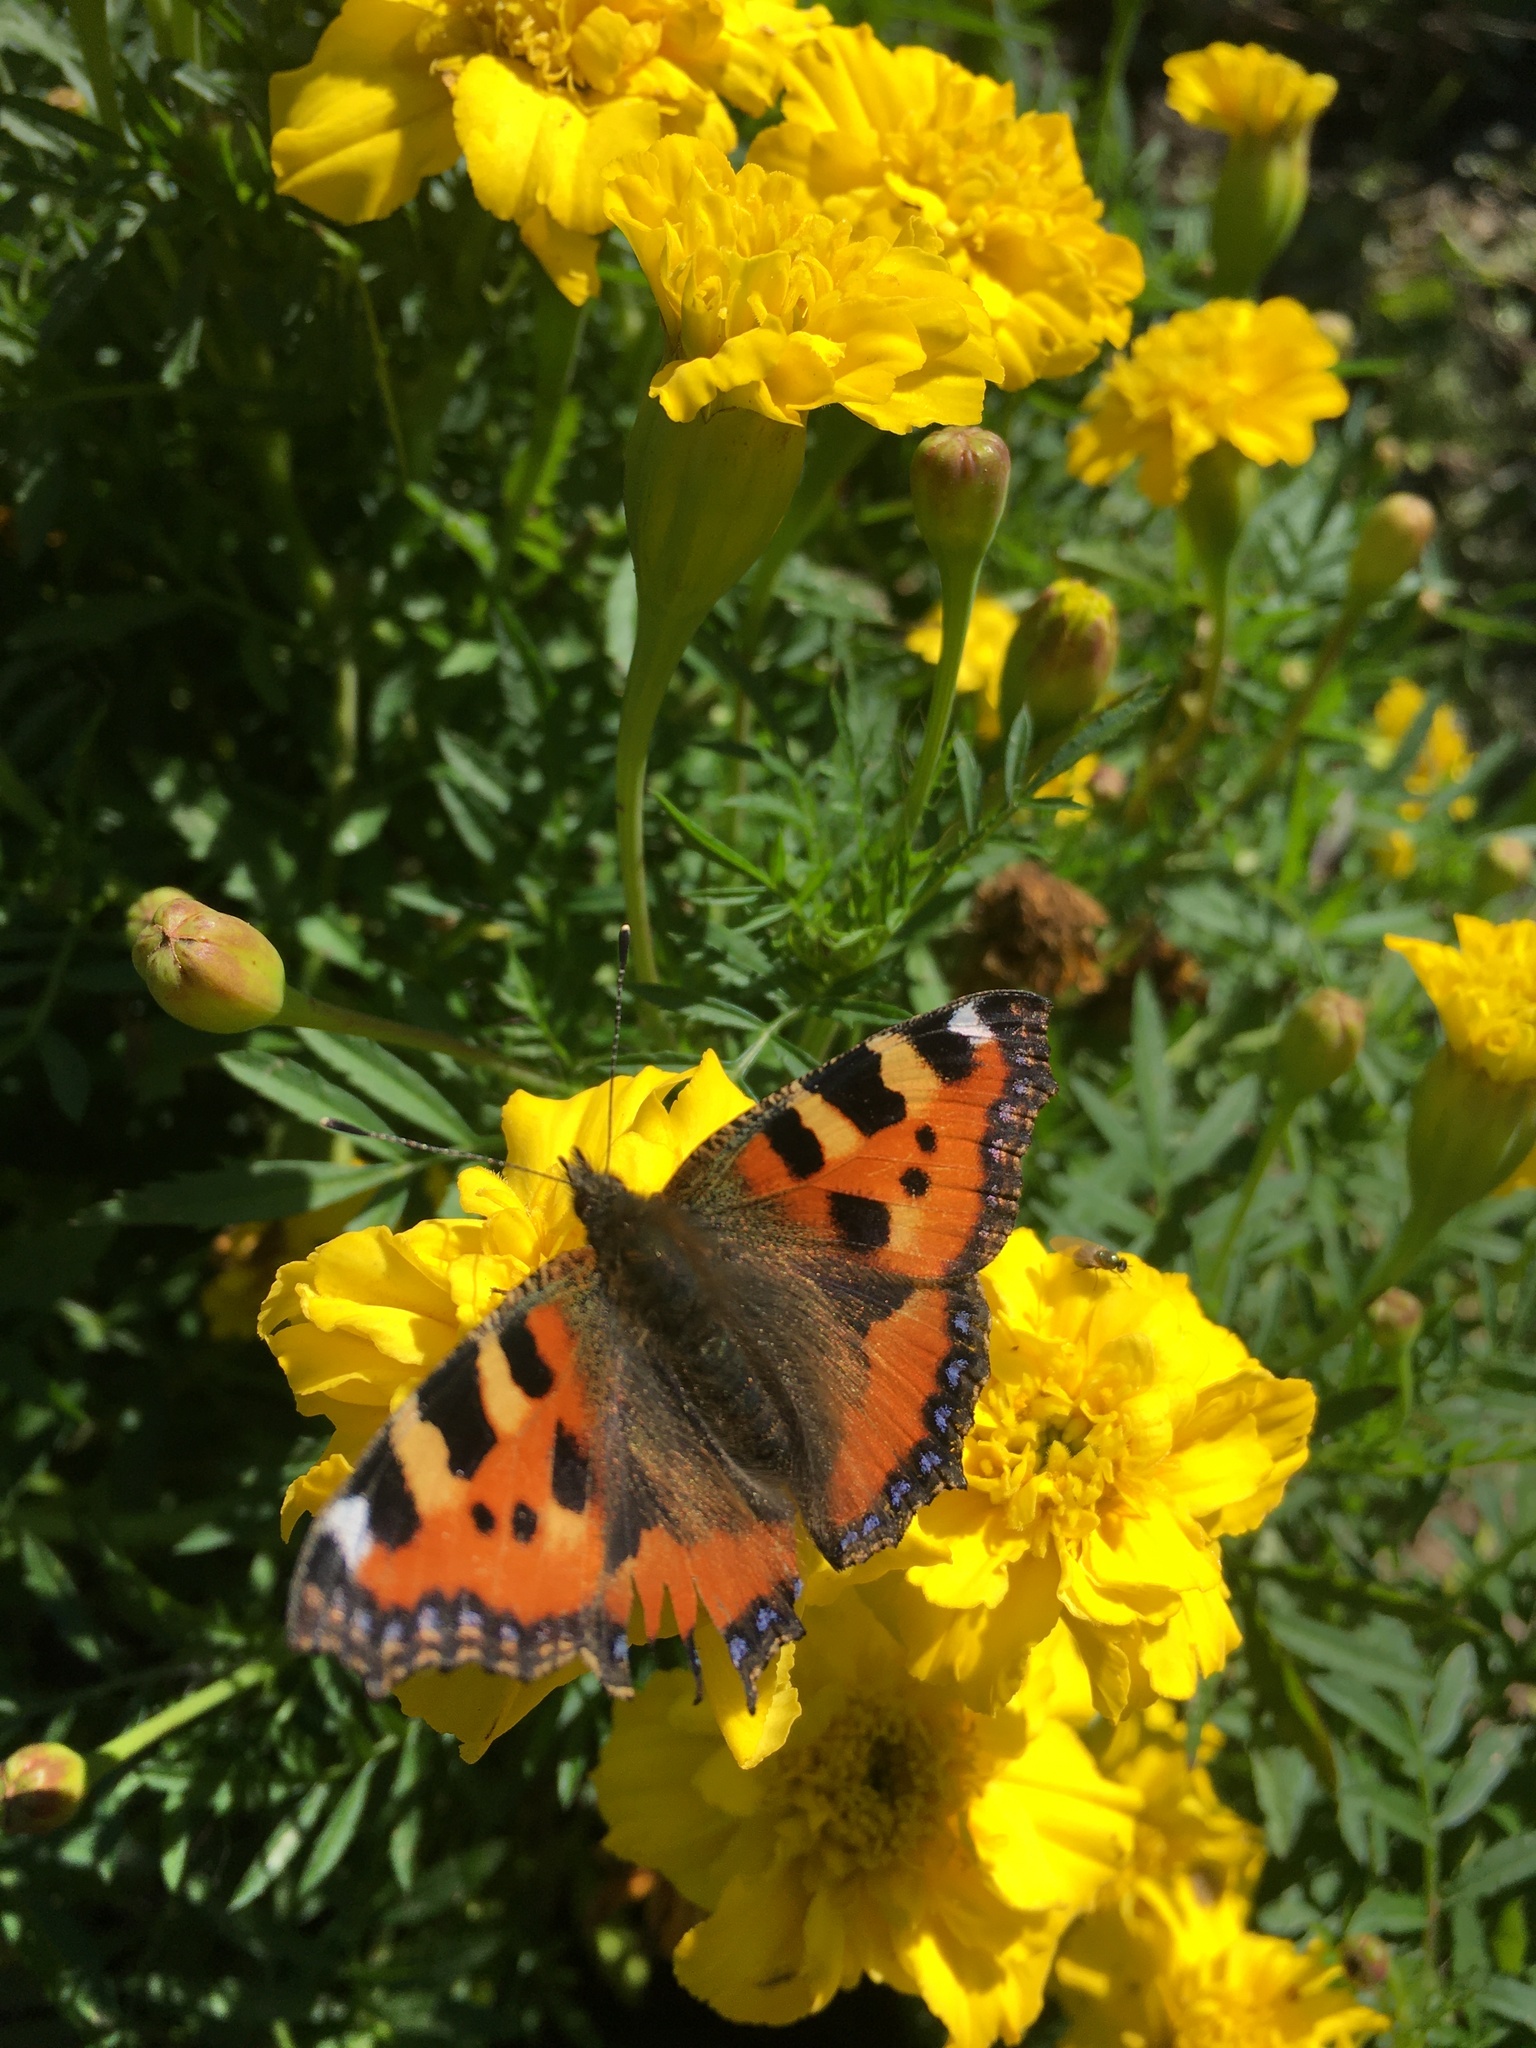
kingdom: Animalia
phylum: Arthropoda
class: Insecta
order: Lepidoptera
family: Nymphalidae
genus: Aglais
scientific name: Aglais urticae
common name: Small tortoiseshell
